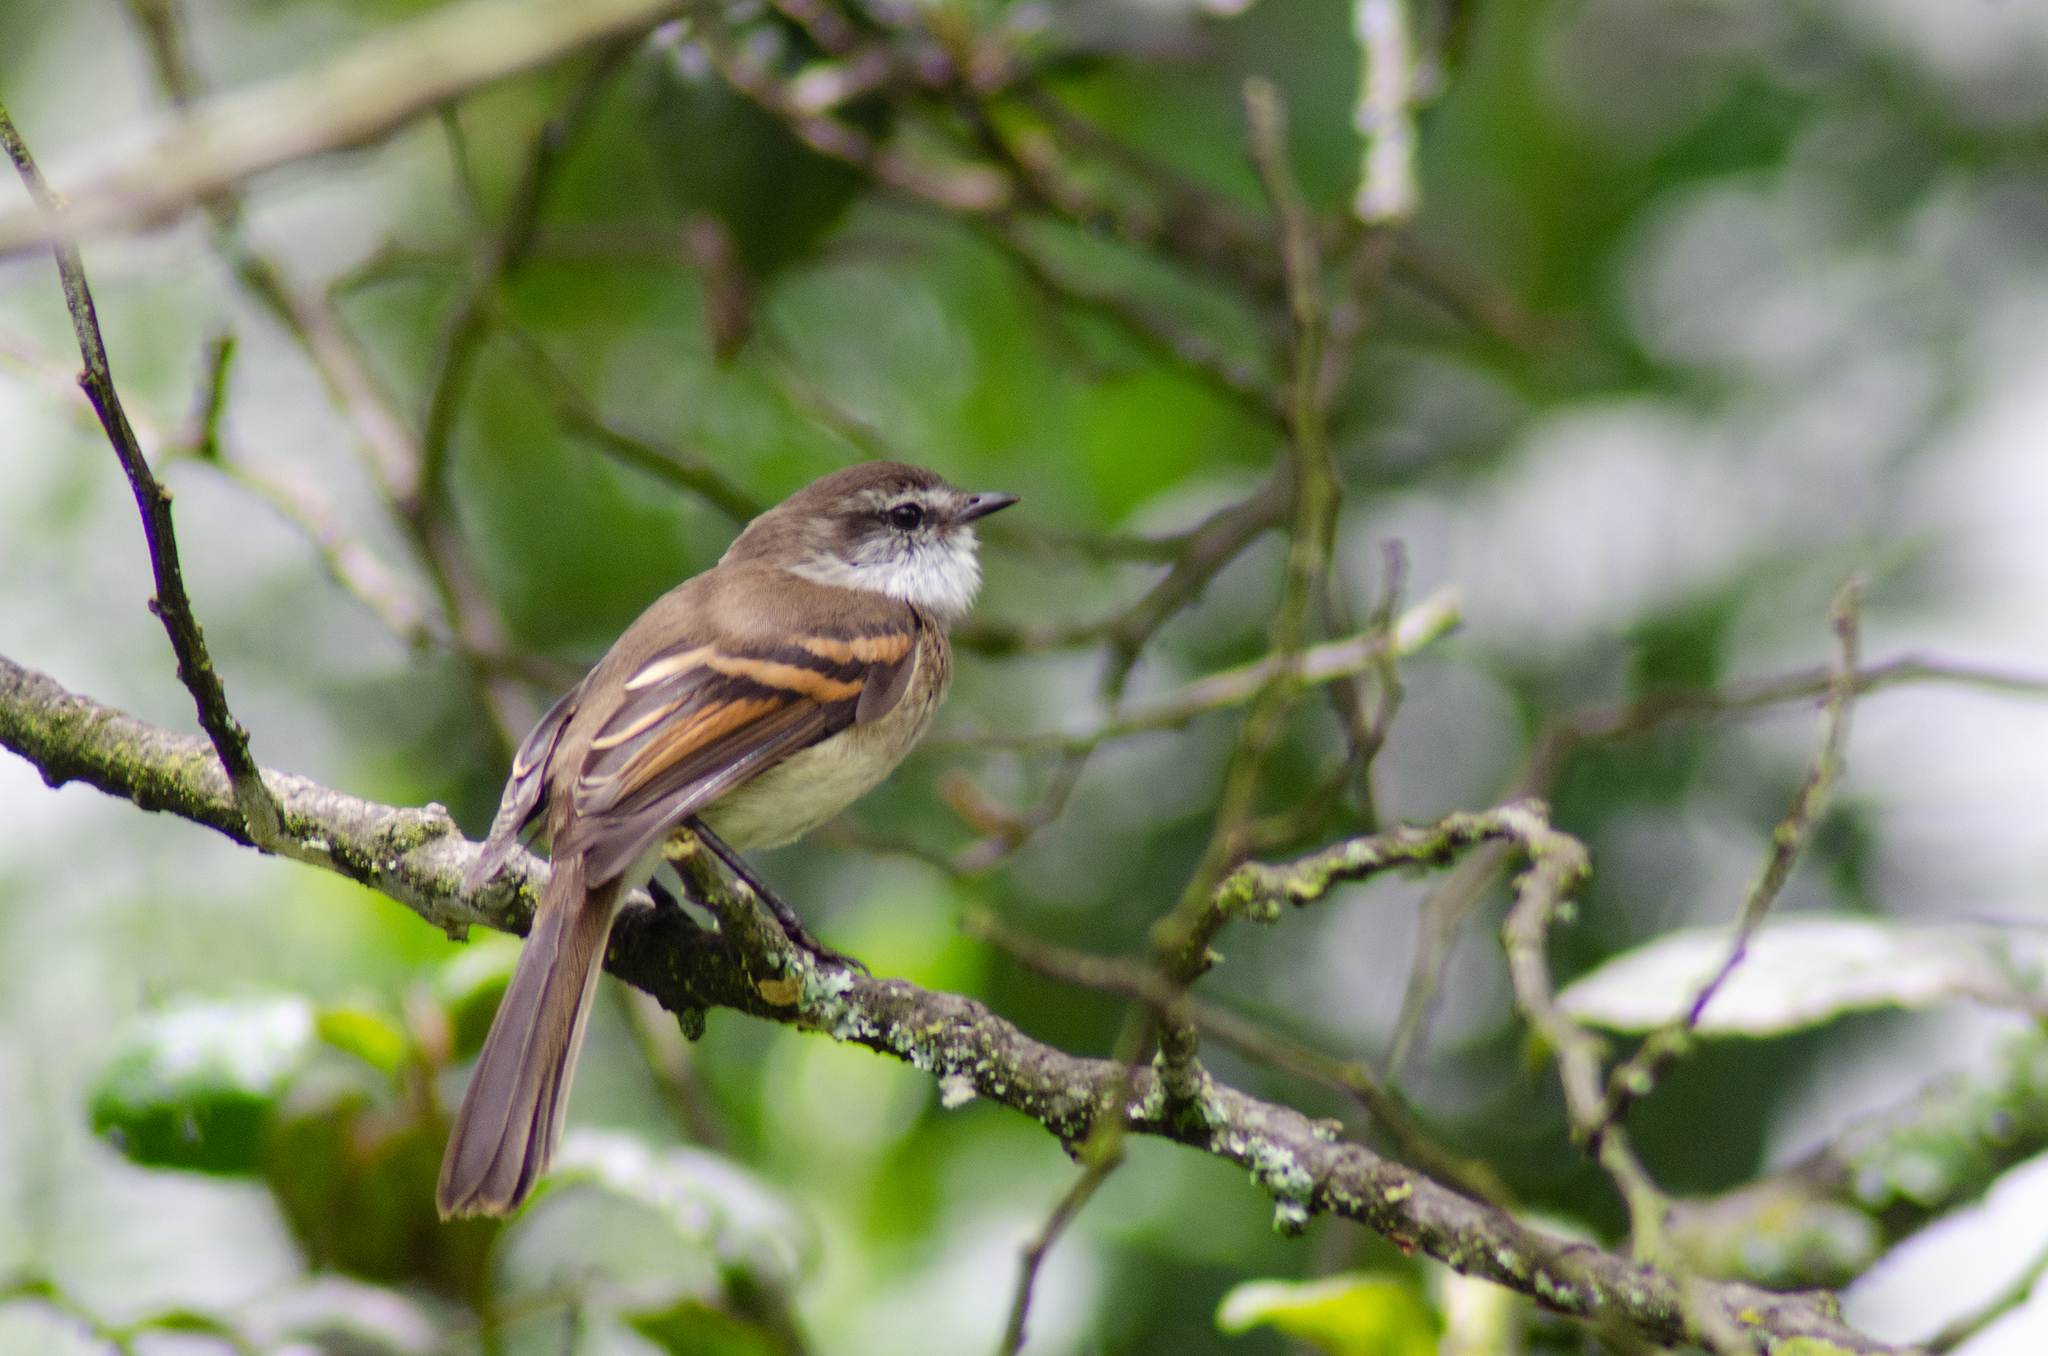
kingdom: Animalia
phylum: Chordata
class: Aves
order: Passeriformes
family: Tyrannidae
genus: Mecocerculus
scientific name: Mecocerculus leucophrys
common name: White-throated tyrannulet
